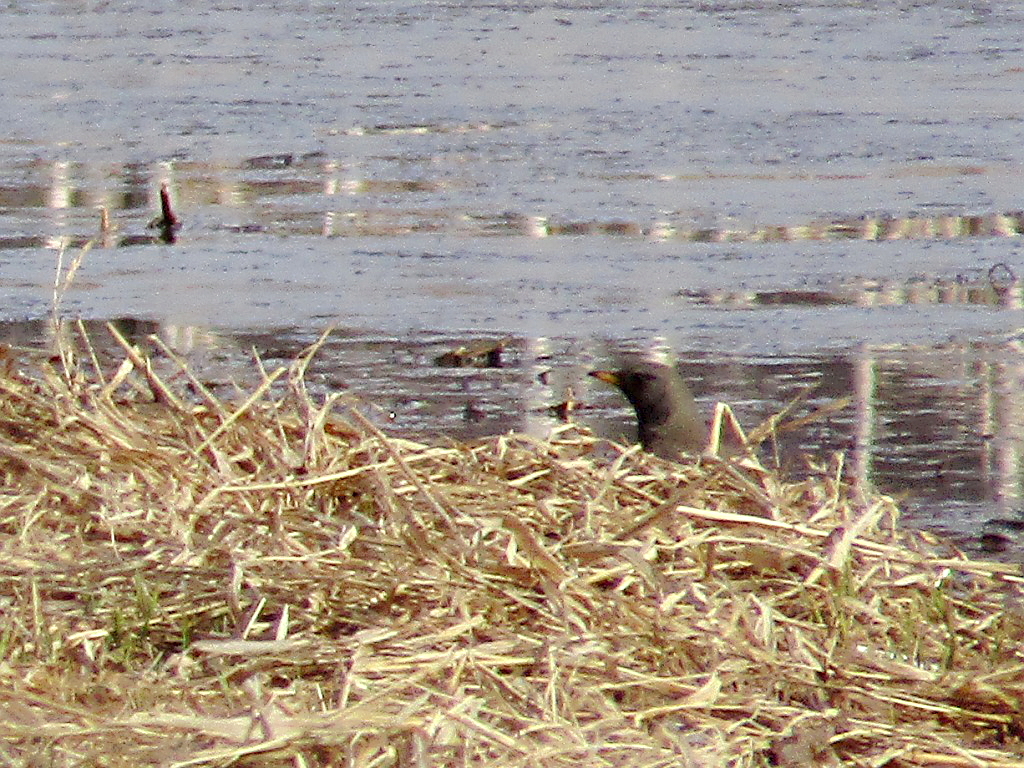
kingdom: Animalia
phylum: Chordata
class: Aves
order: Passeriformes
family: Turdidae
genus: Turdus
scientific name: Turdus atrogularis
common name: Black-throated thrush
